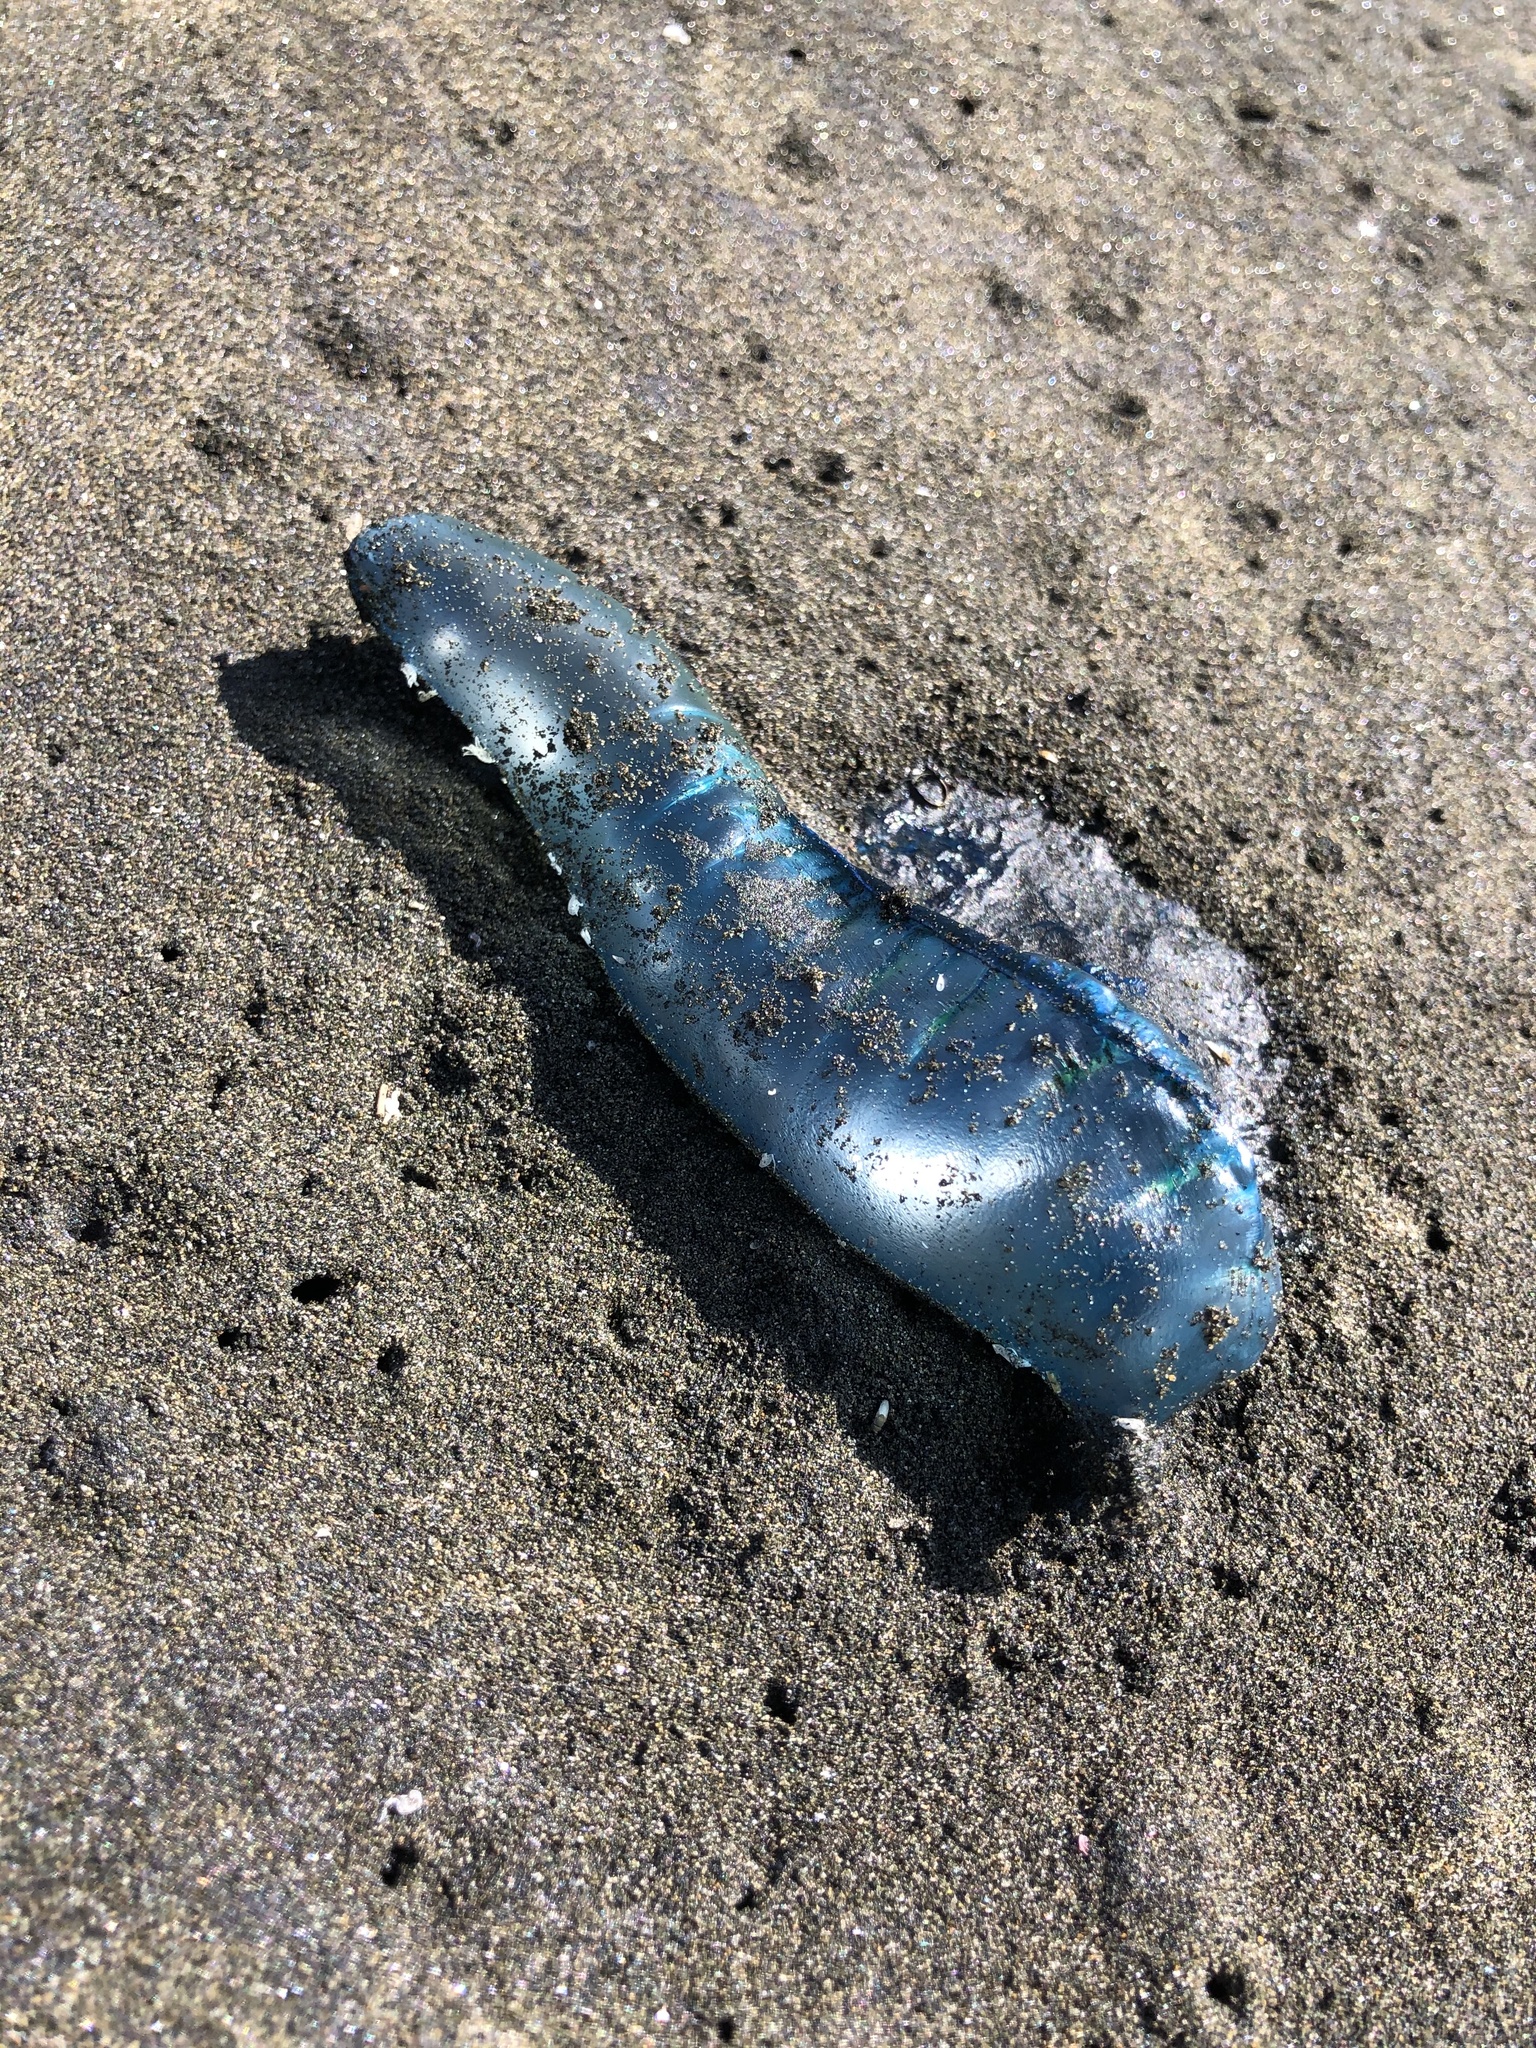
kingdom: Animalia
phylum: Cnidaria
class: Hydrozoa
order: Siphonophorae
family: Physaliidae
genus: Physalia
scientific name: Physalia physalis
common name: Portuguese man-of-war
